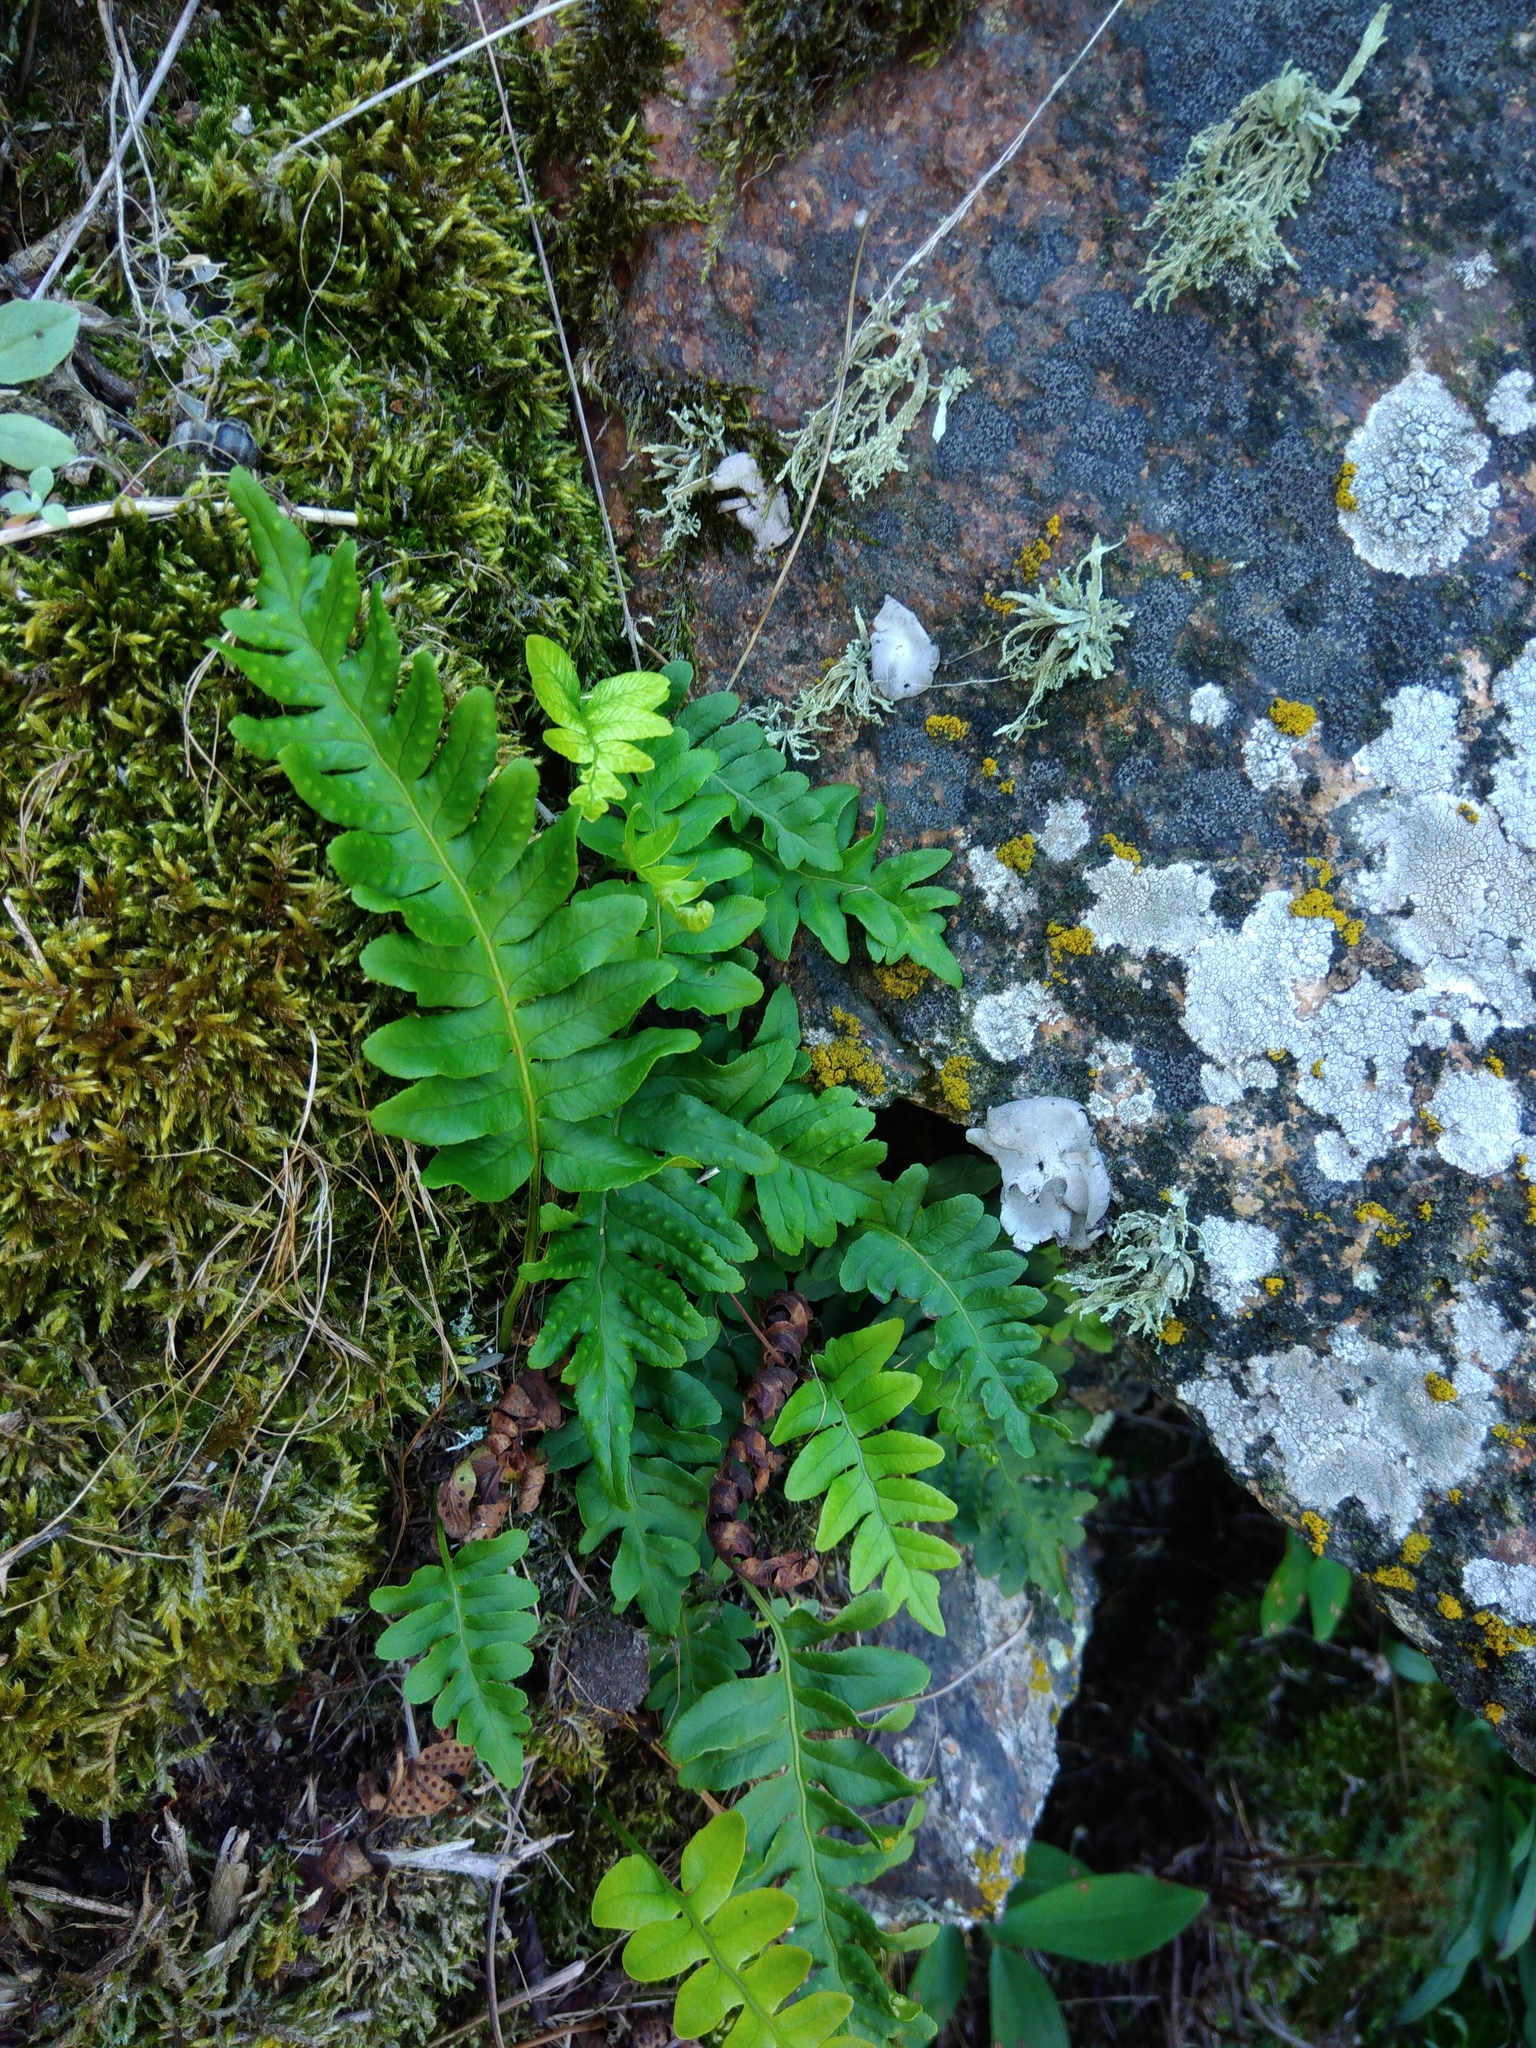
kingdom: Plantae
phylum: Tracheophyta
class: Polypodiopsida
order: Polypodiales
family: Polypodiaceae
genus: Polypodium
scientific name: Polypodium vulgare
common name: Common polypody
